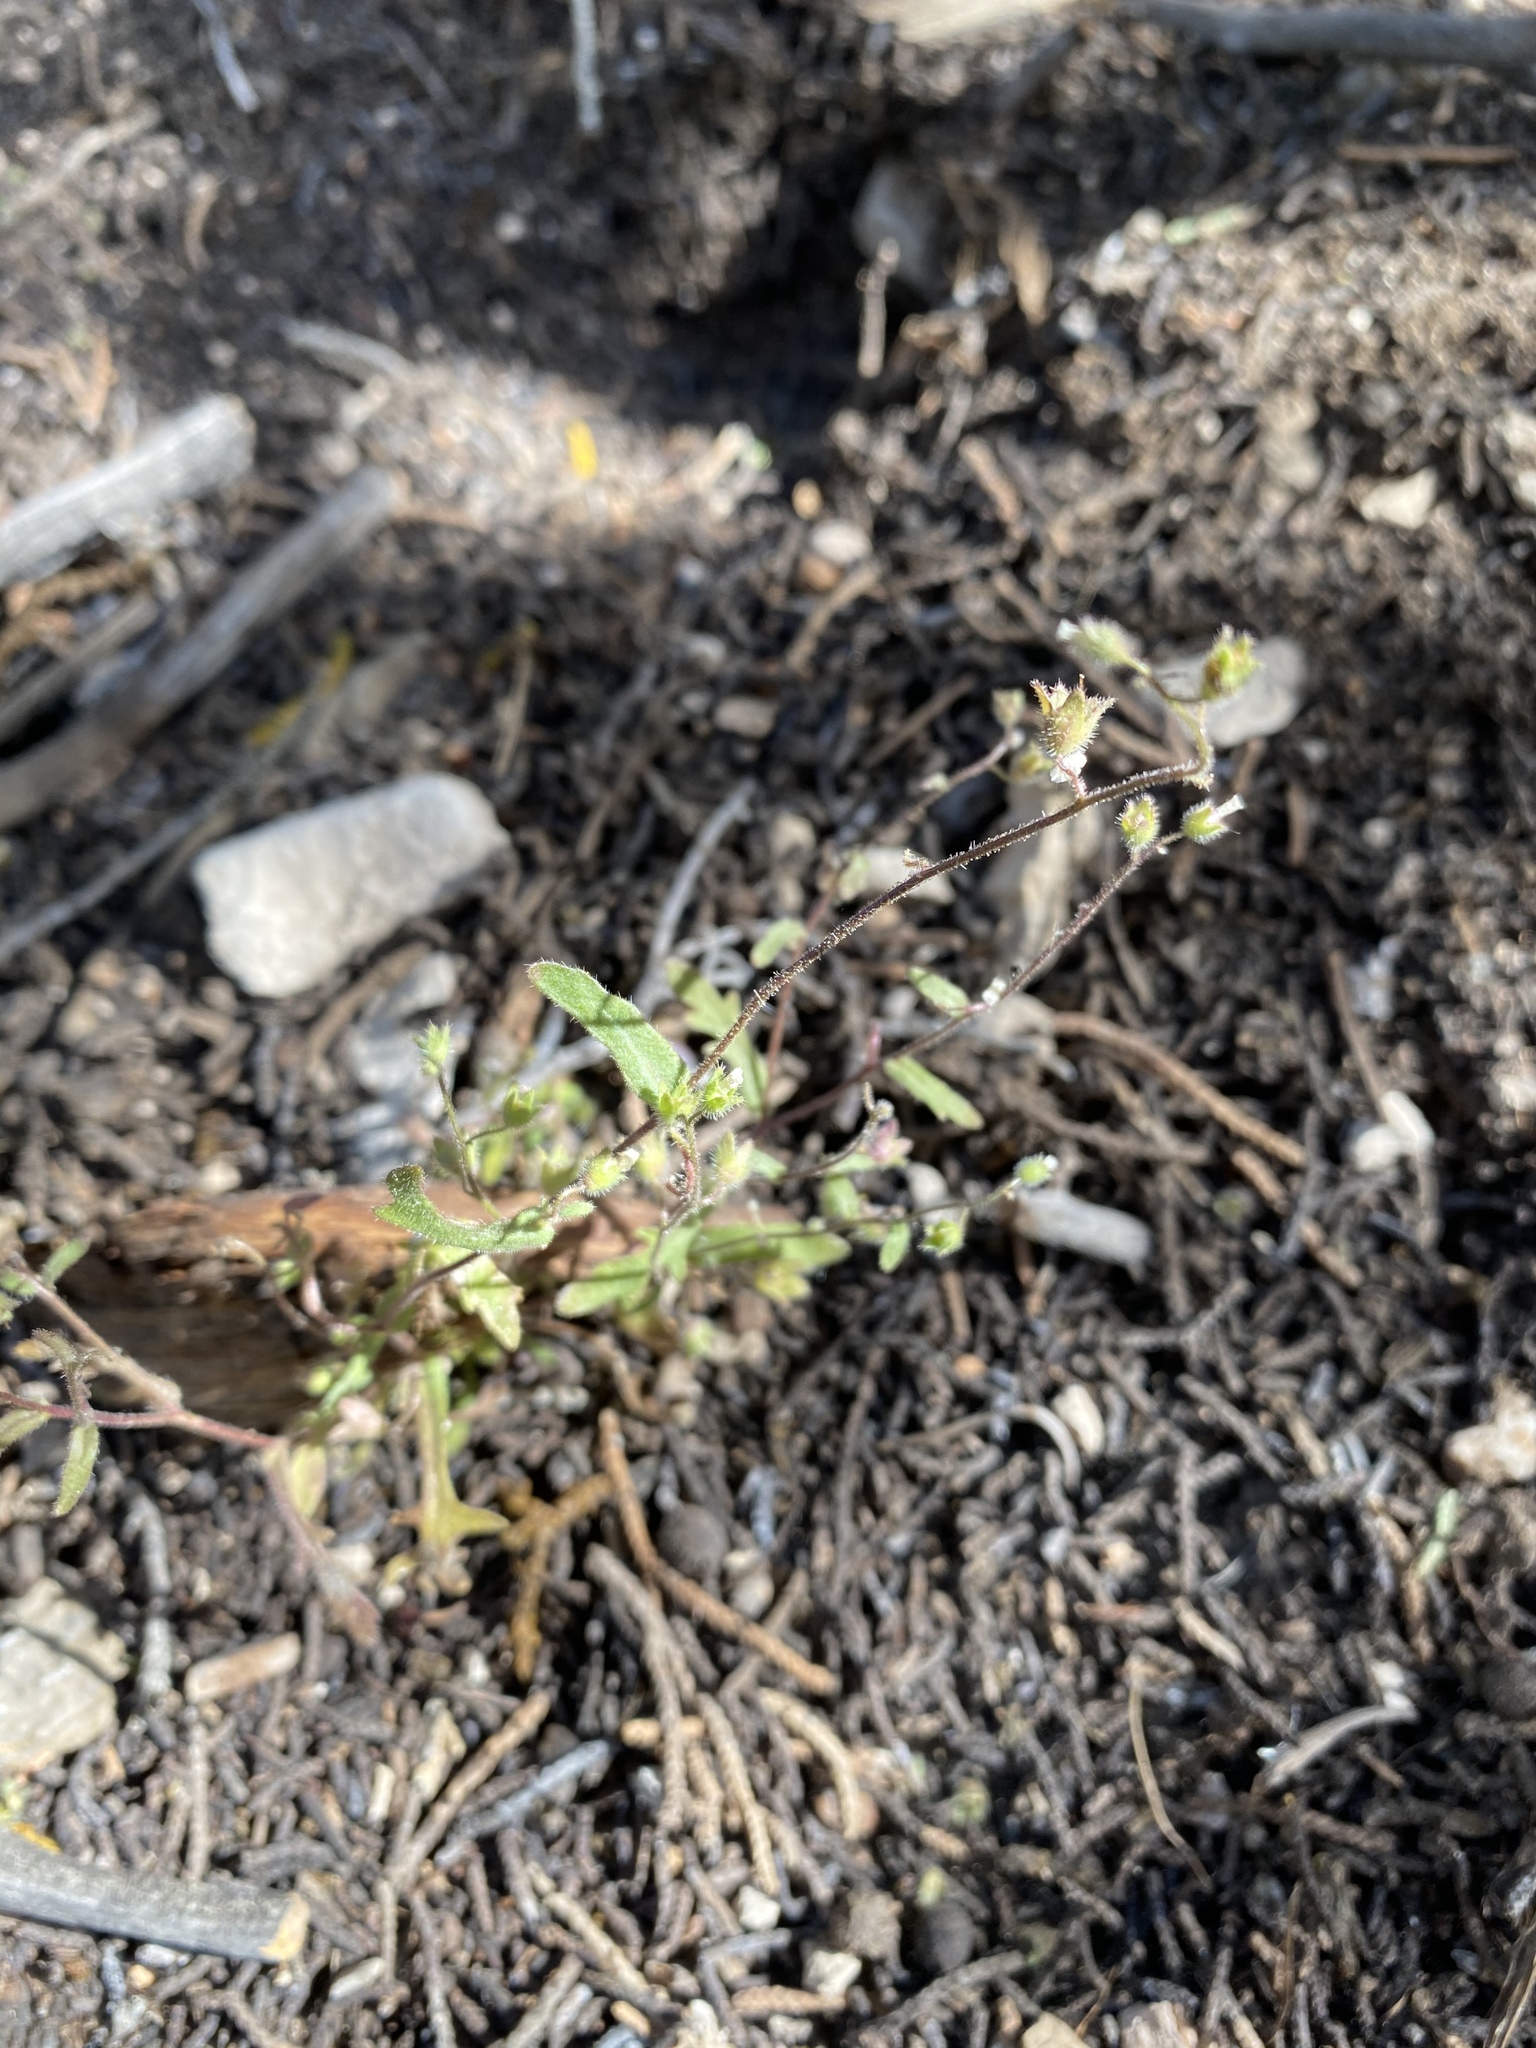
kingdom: Plantae
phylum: Tracheophyta
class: Magnoliopsida
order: Boraginales
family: Hydrophyllaceae
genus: Eucrypta
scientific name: Eucrypta micrantha
